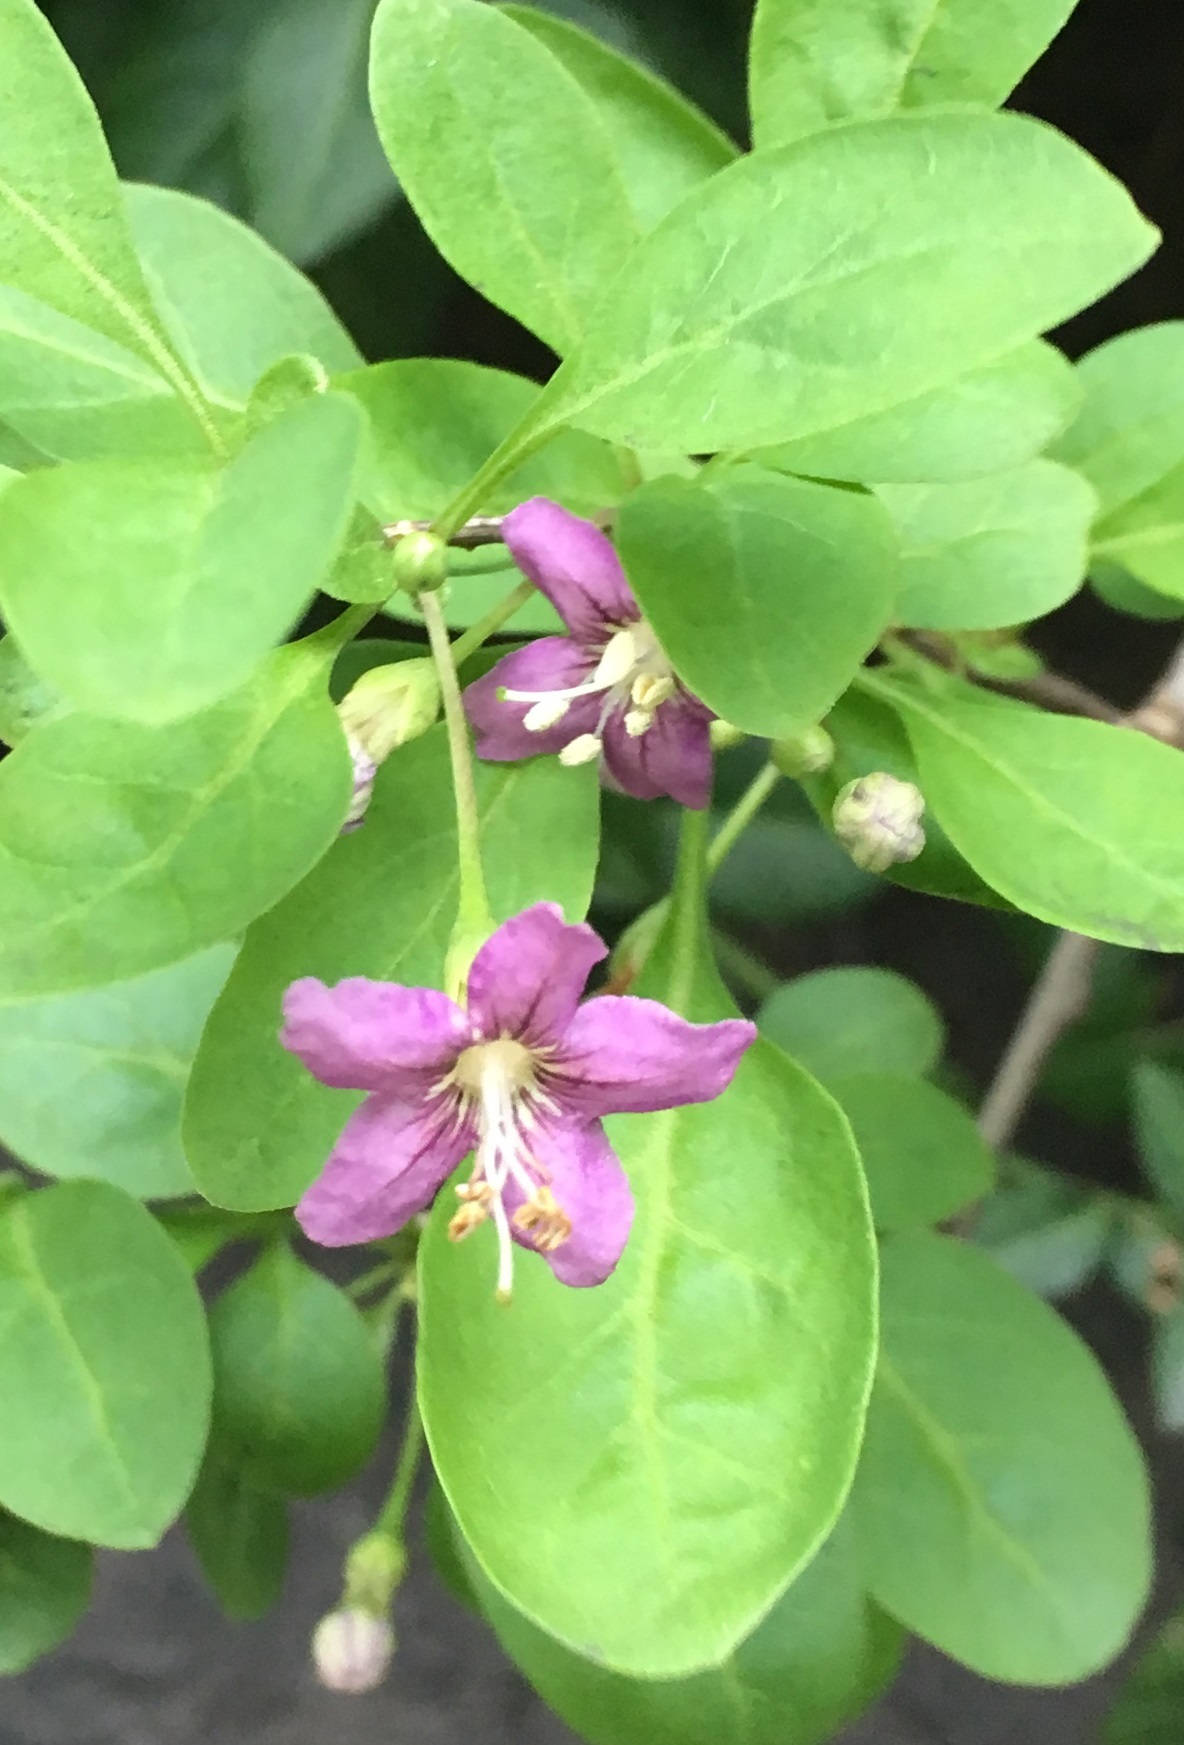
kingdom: Plantae
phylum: Tracheophyta
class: Magnoliopsida
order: Solanales
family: Solanaceae
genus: Lycium
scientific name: Lycium barbarum
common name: Duke of argyll's teaplant
